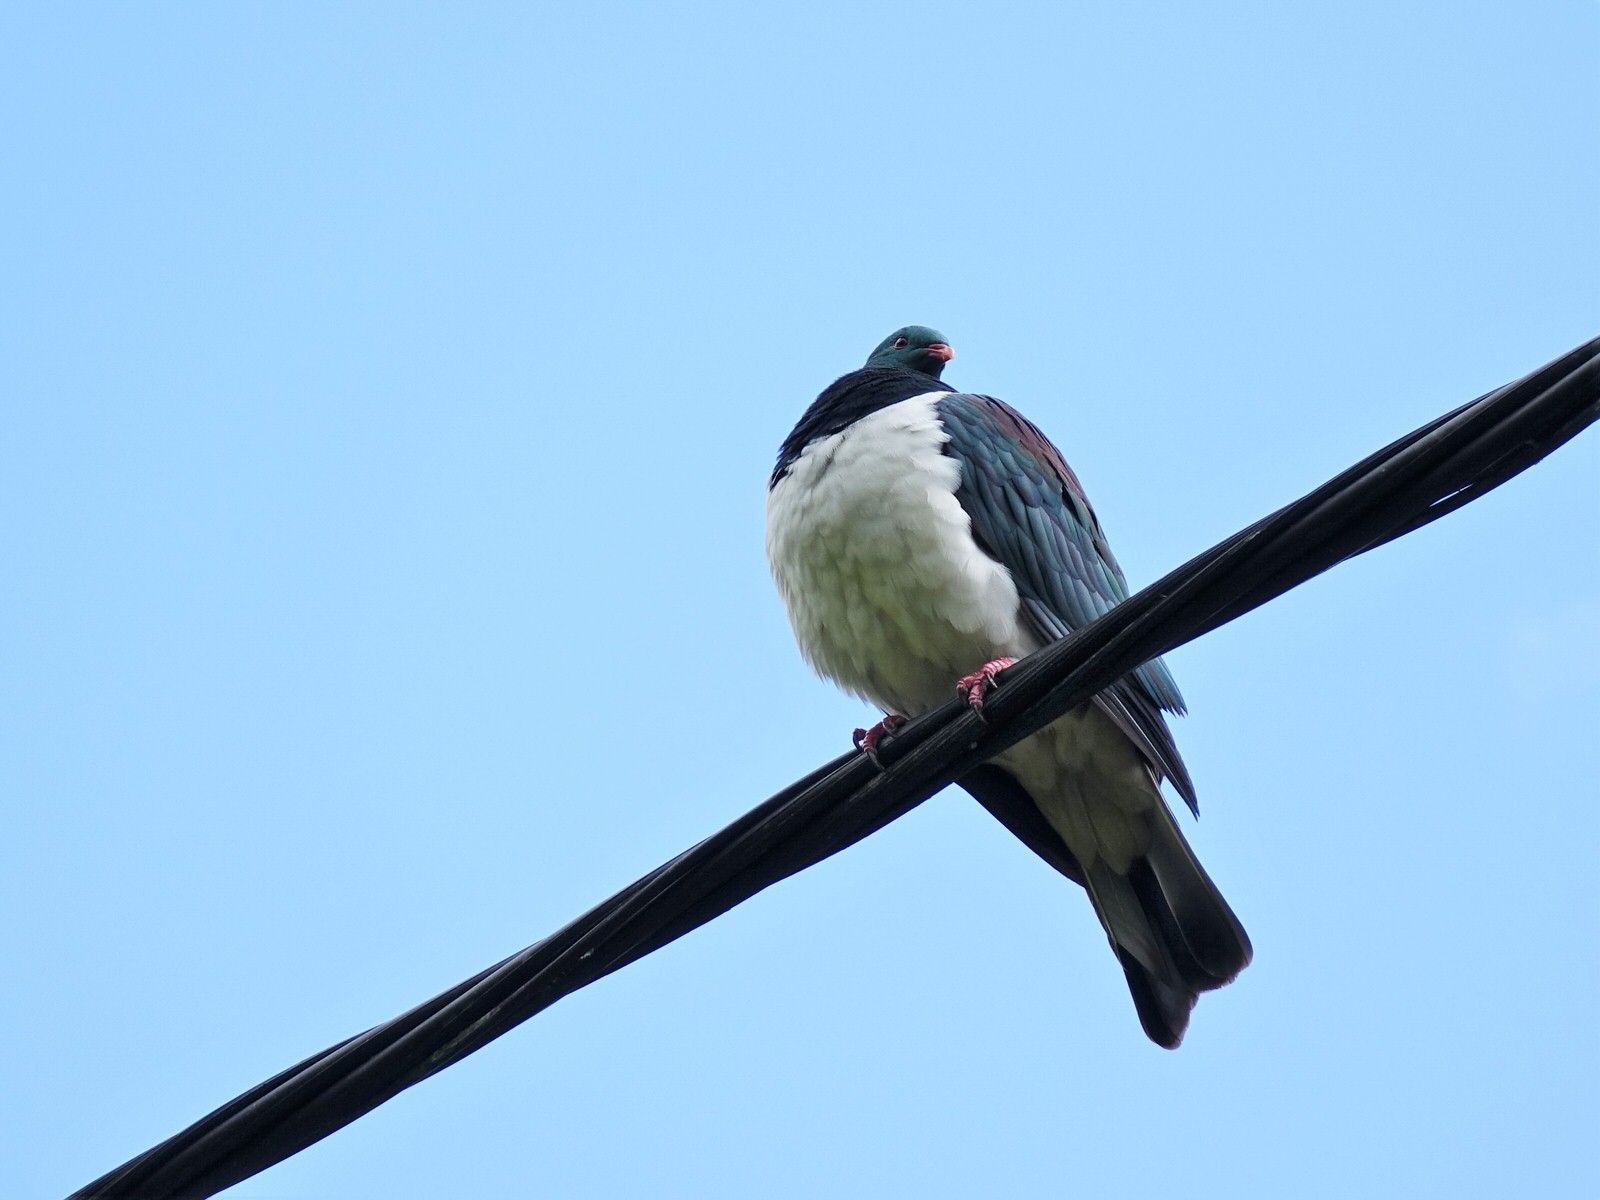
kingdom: Animalia
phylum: Chordata
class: Aves
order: Columbiformes
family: Columbidae
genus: Hemiphaga
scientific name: Hemiphaga novaeseelandiae
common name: New zealand pigeon
